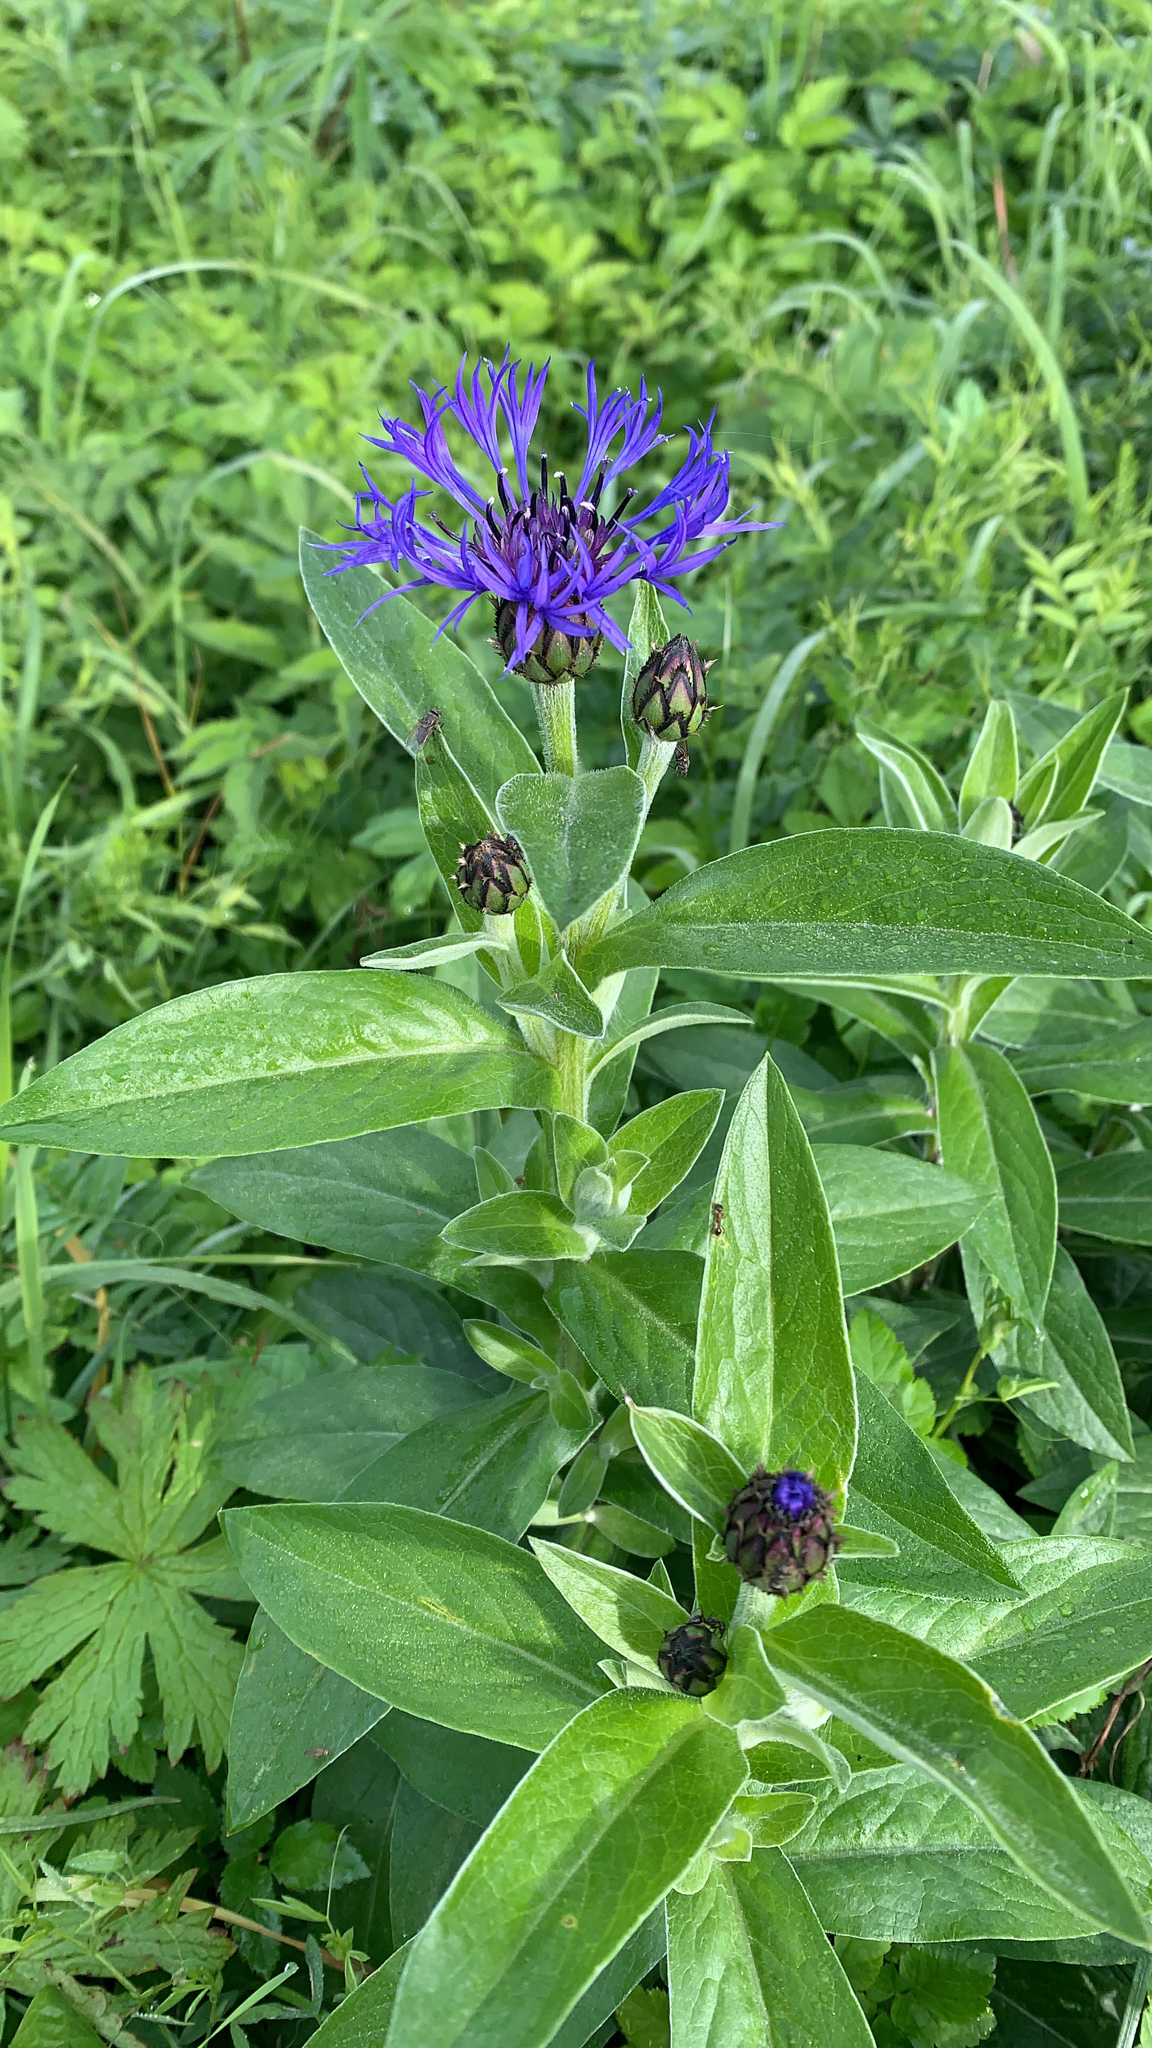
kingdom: Plantae
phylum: Tracheophyta
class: Magnoliopsida
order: Asterales
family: Asteraceae
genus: Centaurea
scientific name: Centaurea montana
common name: Perennial cornflower
